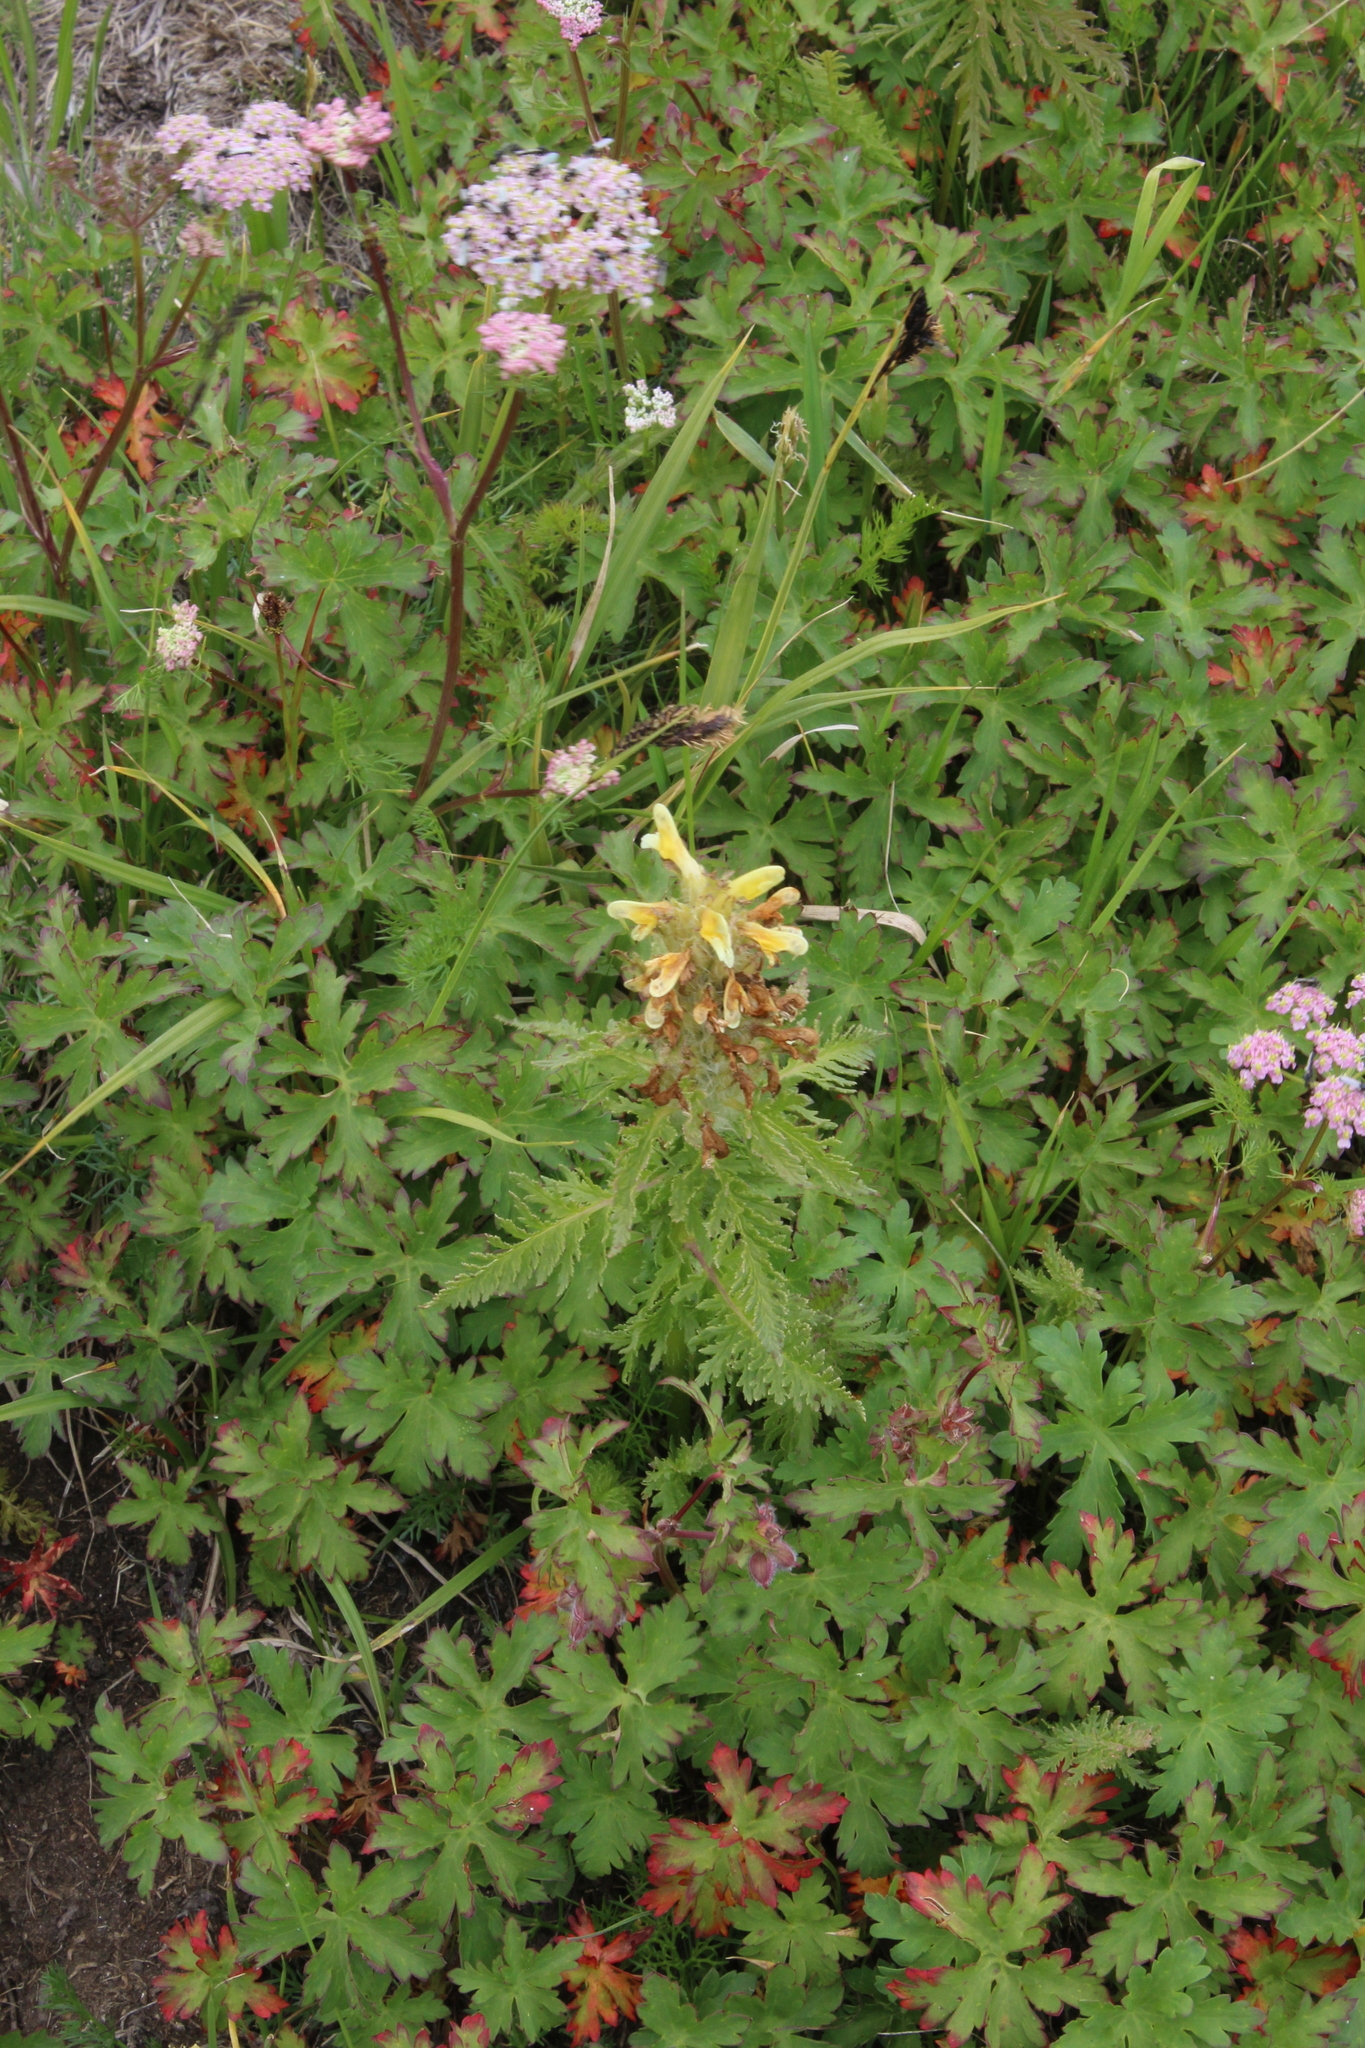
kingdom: Plantae
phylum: Tracheophyta
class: Magnoliopsida
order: Lamiales
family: Orobanchaceae
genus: Pedicularis
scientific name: Pedicularis condensata
